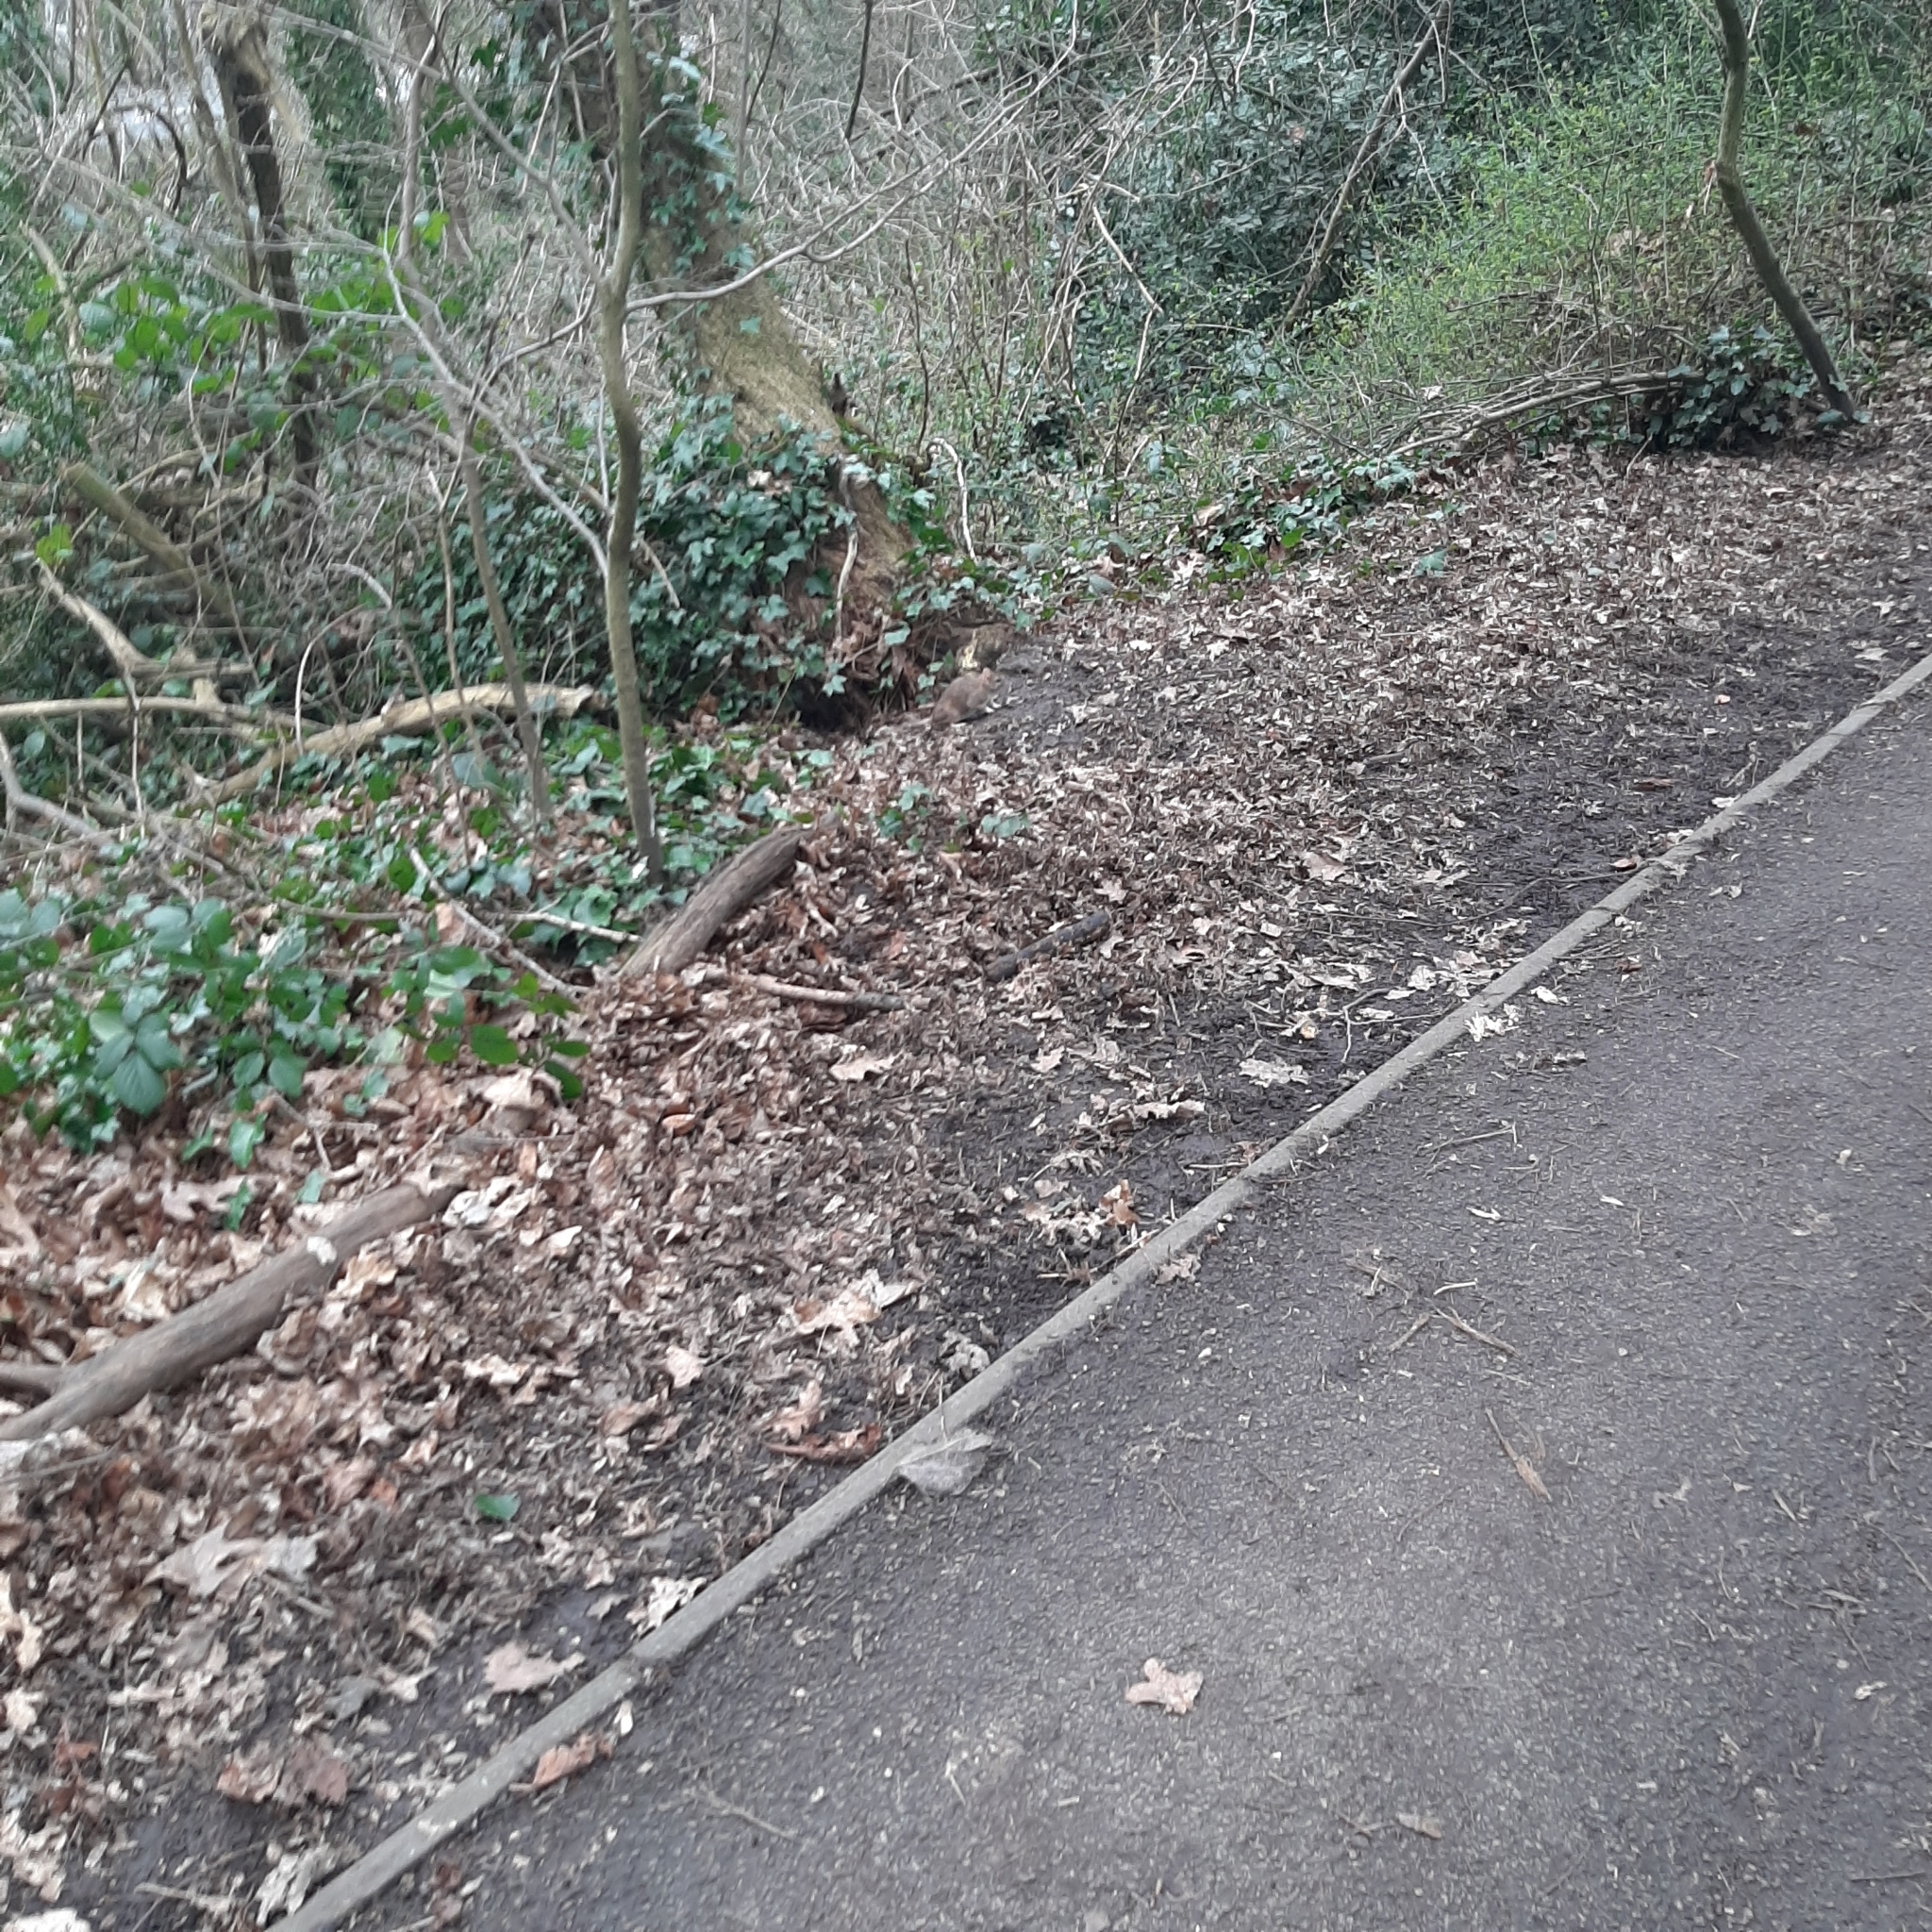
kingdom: Animalia
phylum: Chordata
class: Mammalia
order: Rodentia
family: Muridae
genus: Rattus
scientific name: Rattus norvegicus
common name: Brown rat
